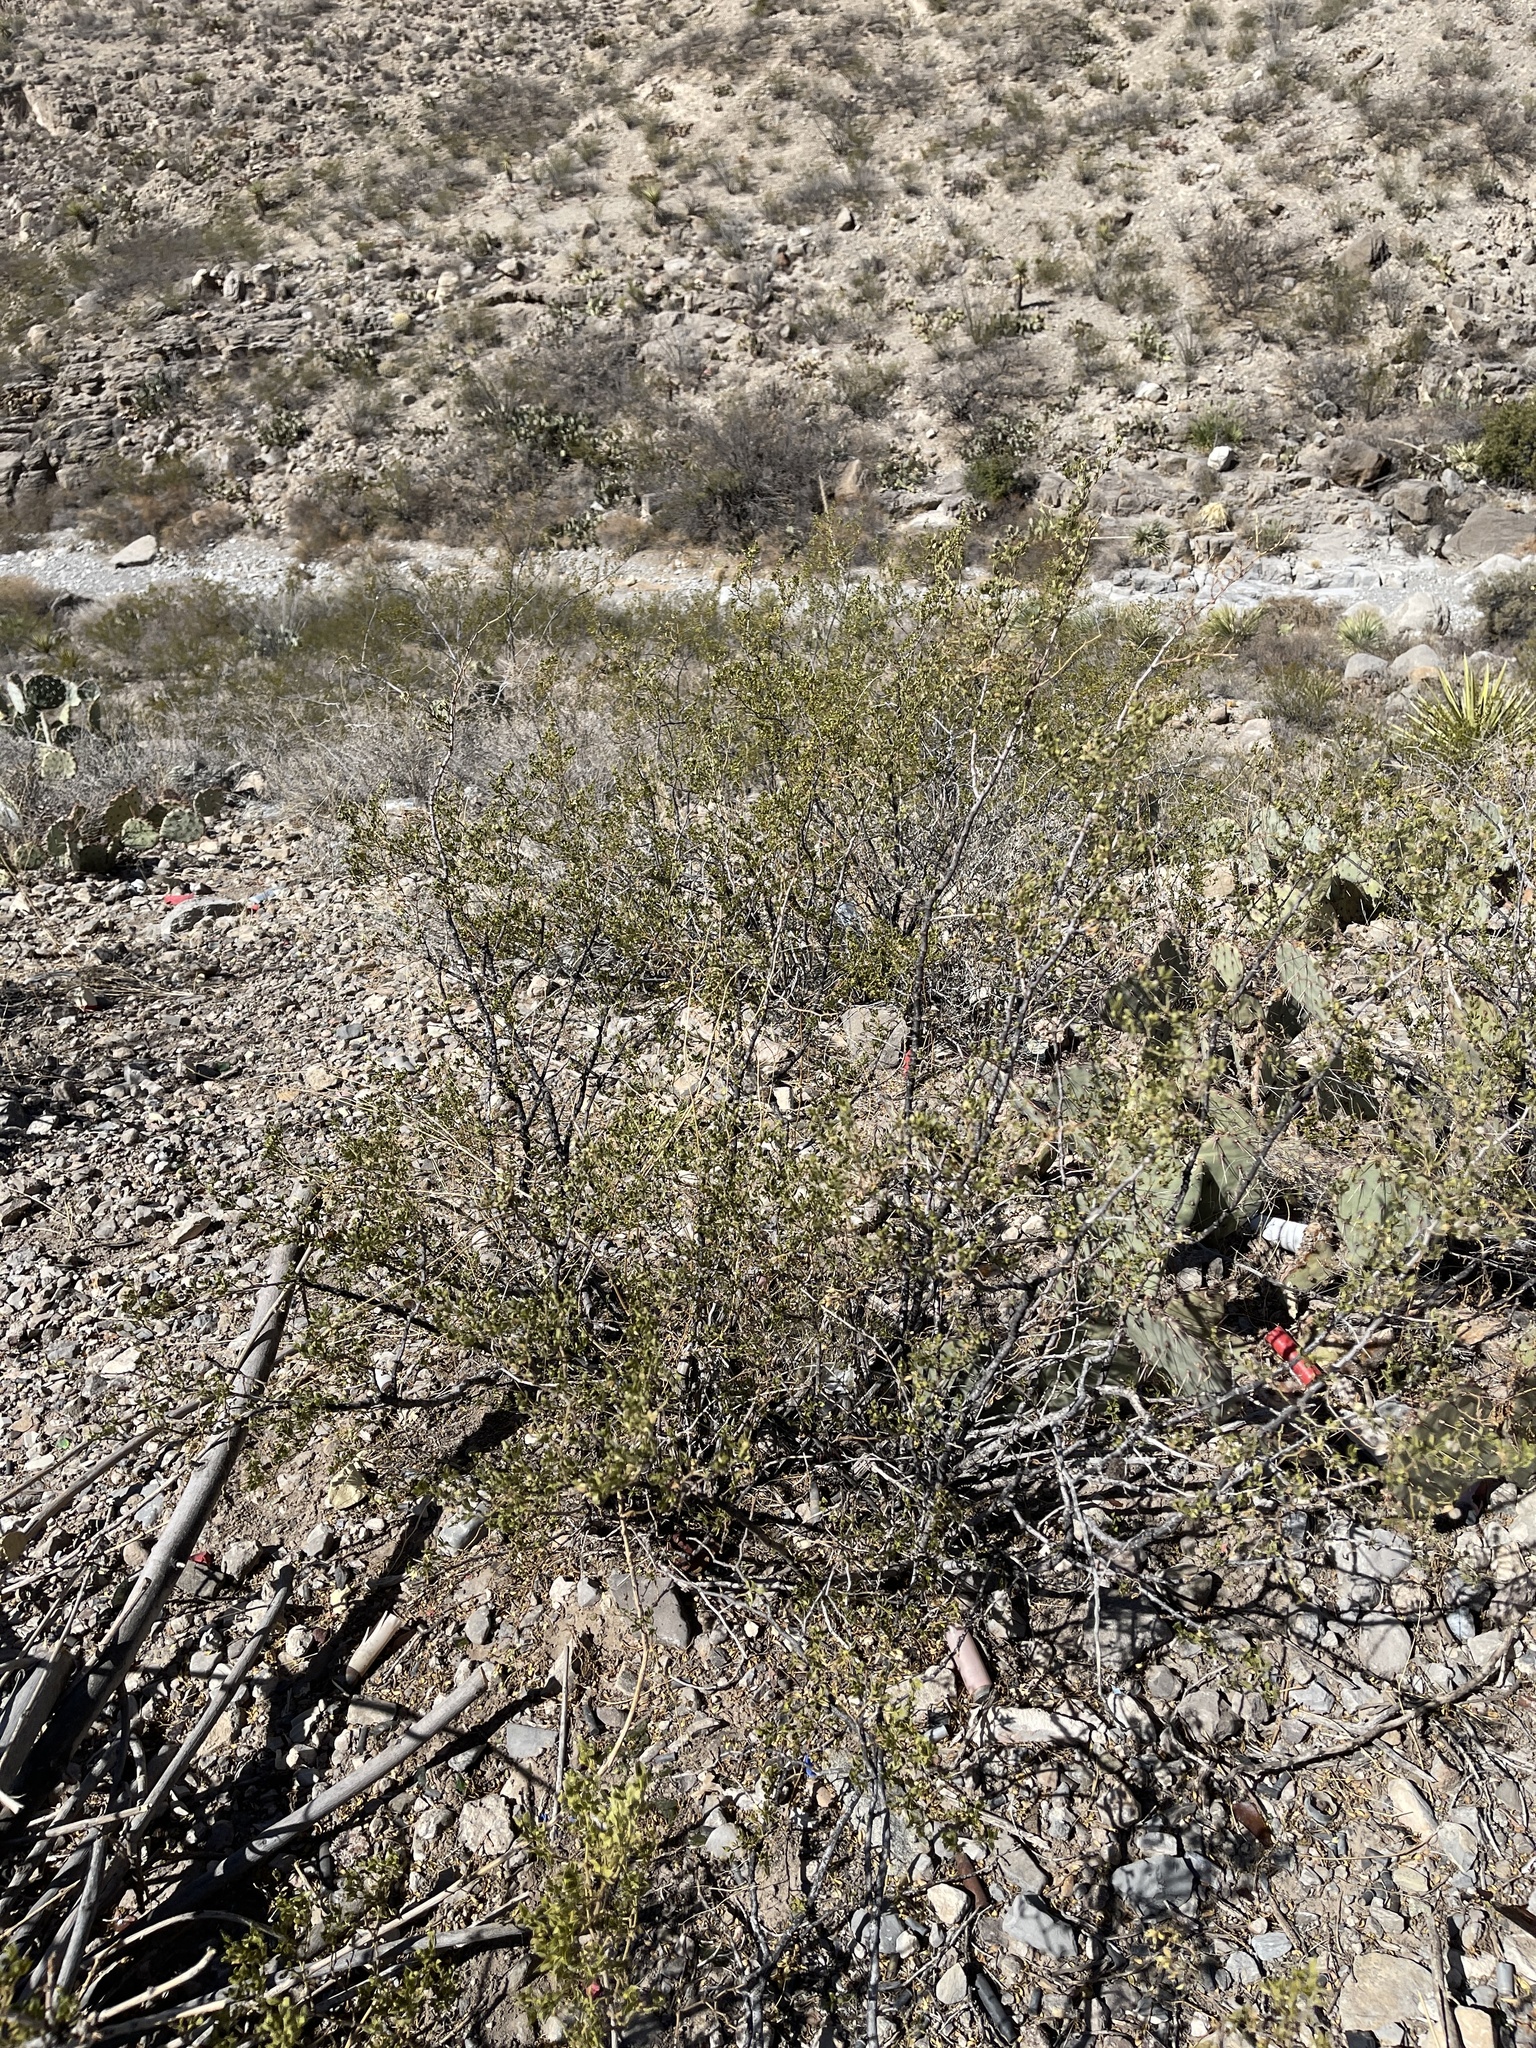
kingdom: Plantae
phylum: Tracheophyta
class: Magnoliopsida
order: Zygophyllales
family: Zygophyllaceae
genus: Larrea
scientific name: Larrea tridentata
